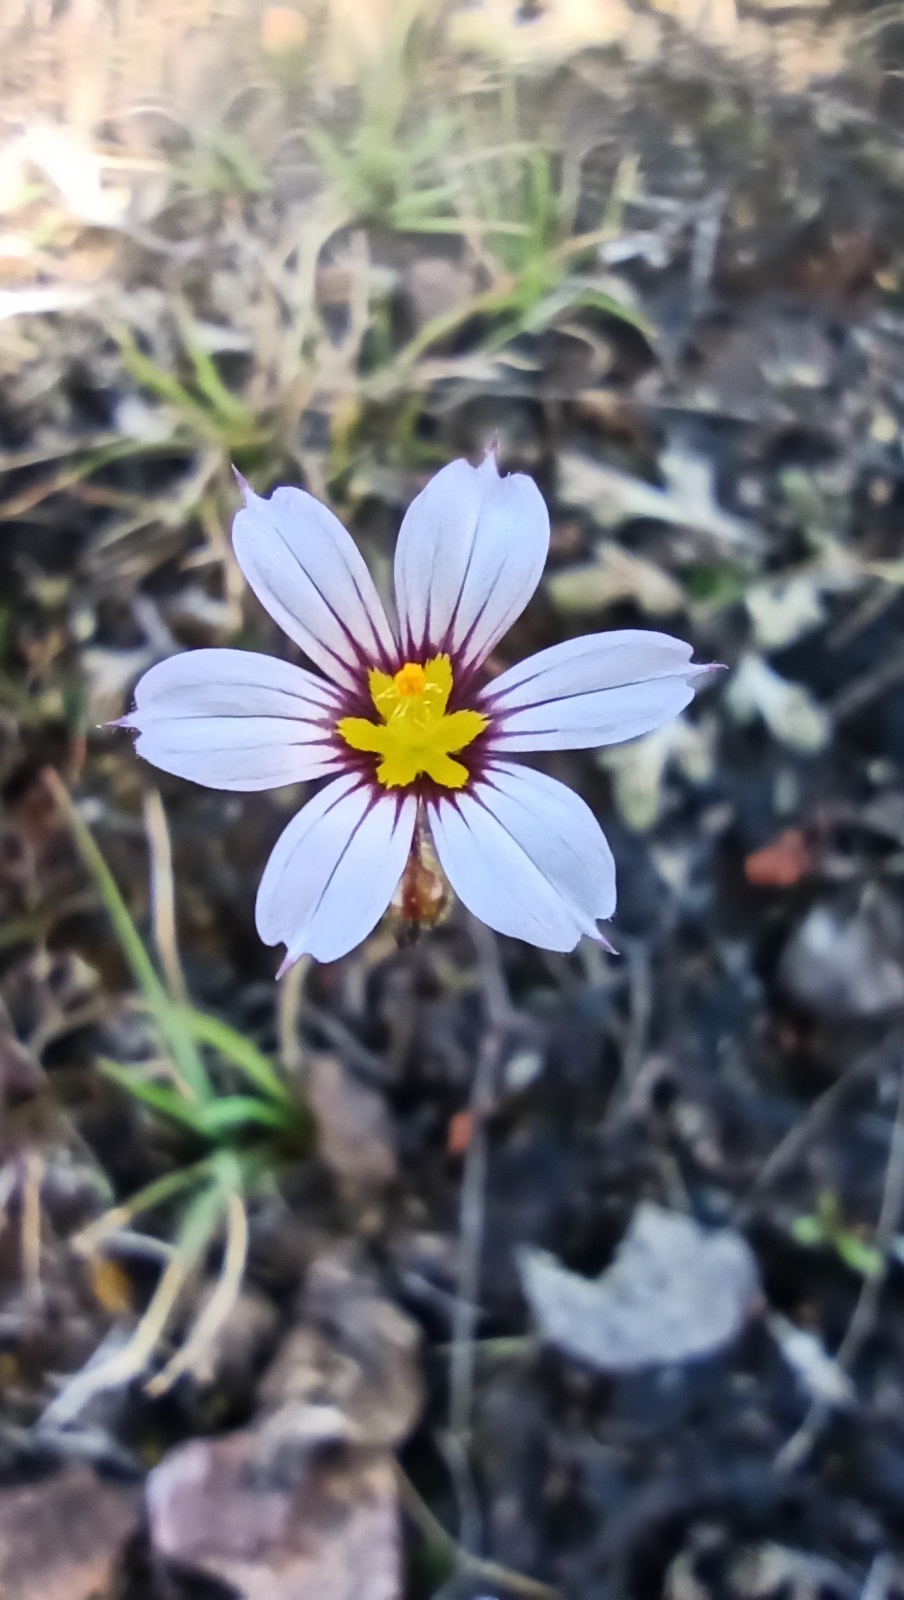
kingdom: Plantae
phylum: Tracheophyta
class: Liliopsida
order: Asparagales
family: Iridaceae
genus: Sisyrinchium
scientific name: Sisyrinchium pampeanum
